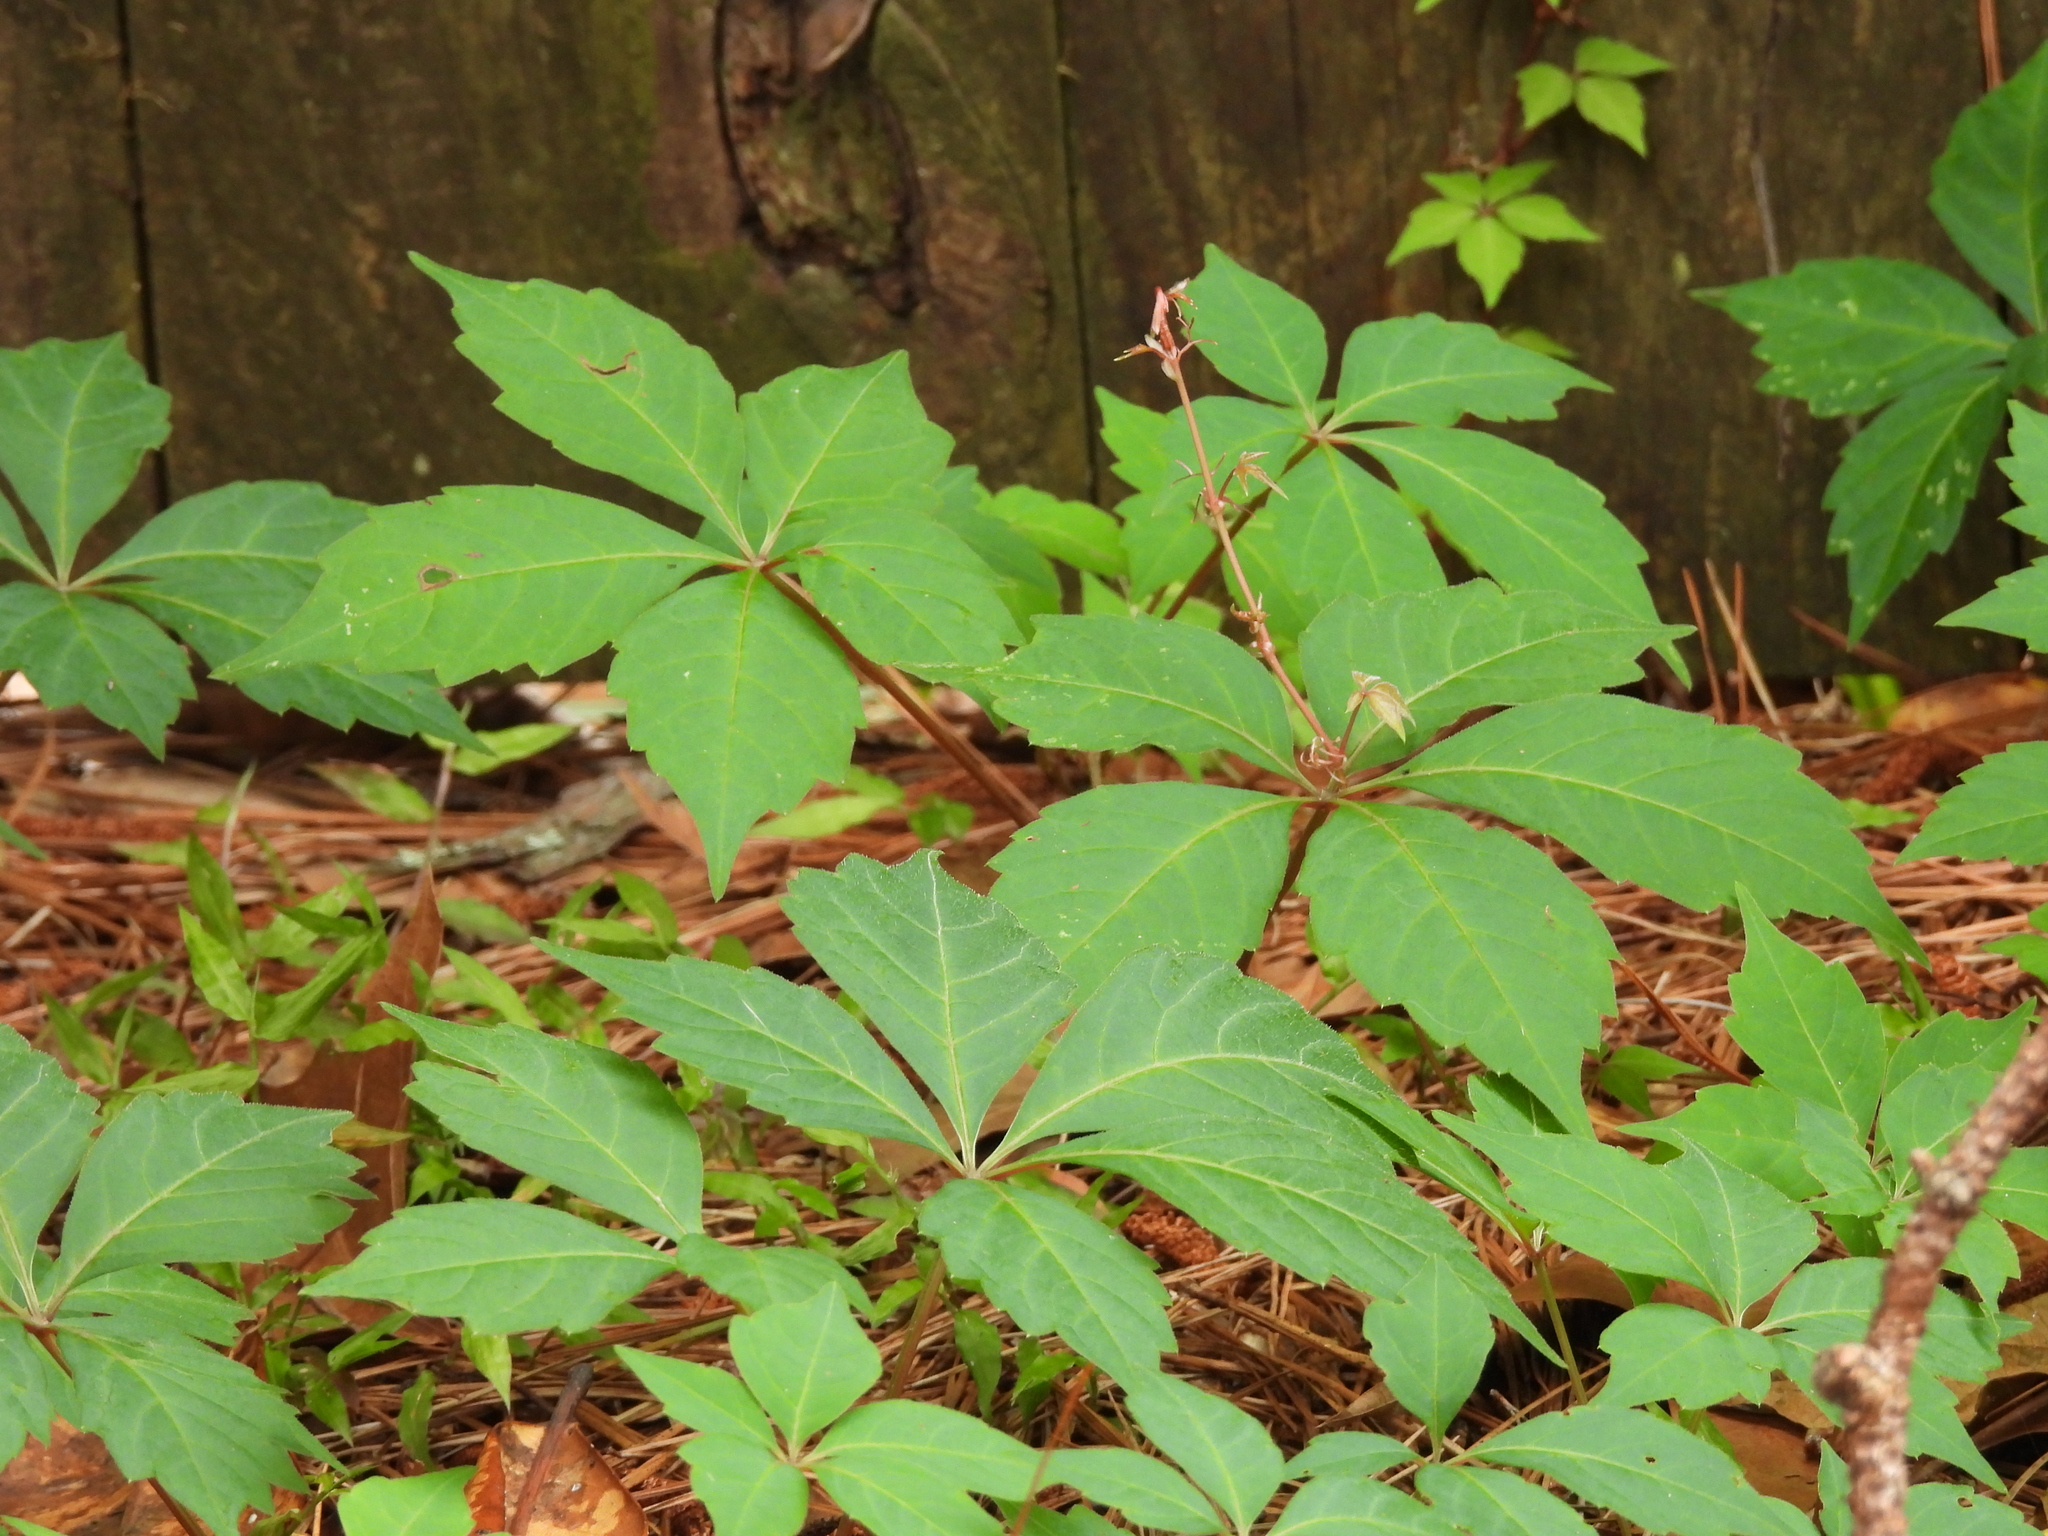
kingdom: Plantae
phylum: Tracheophyta
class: Magnoliopsida
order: Vitales
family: Vitaceae
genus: Parthenocissus
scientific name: Parthenocissus quinquefolia
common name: Virginia-creeper
